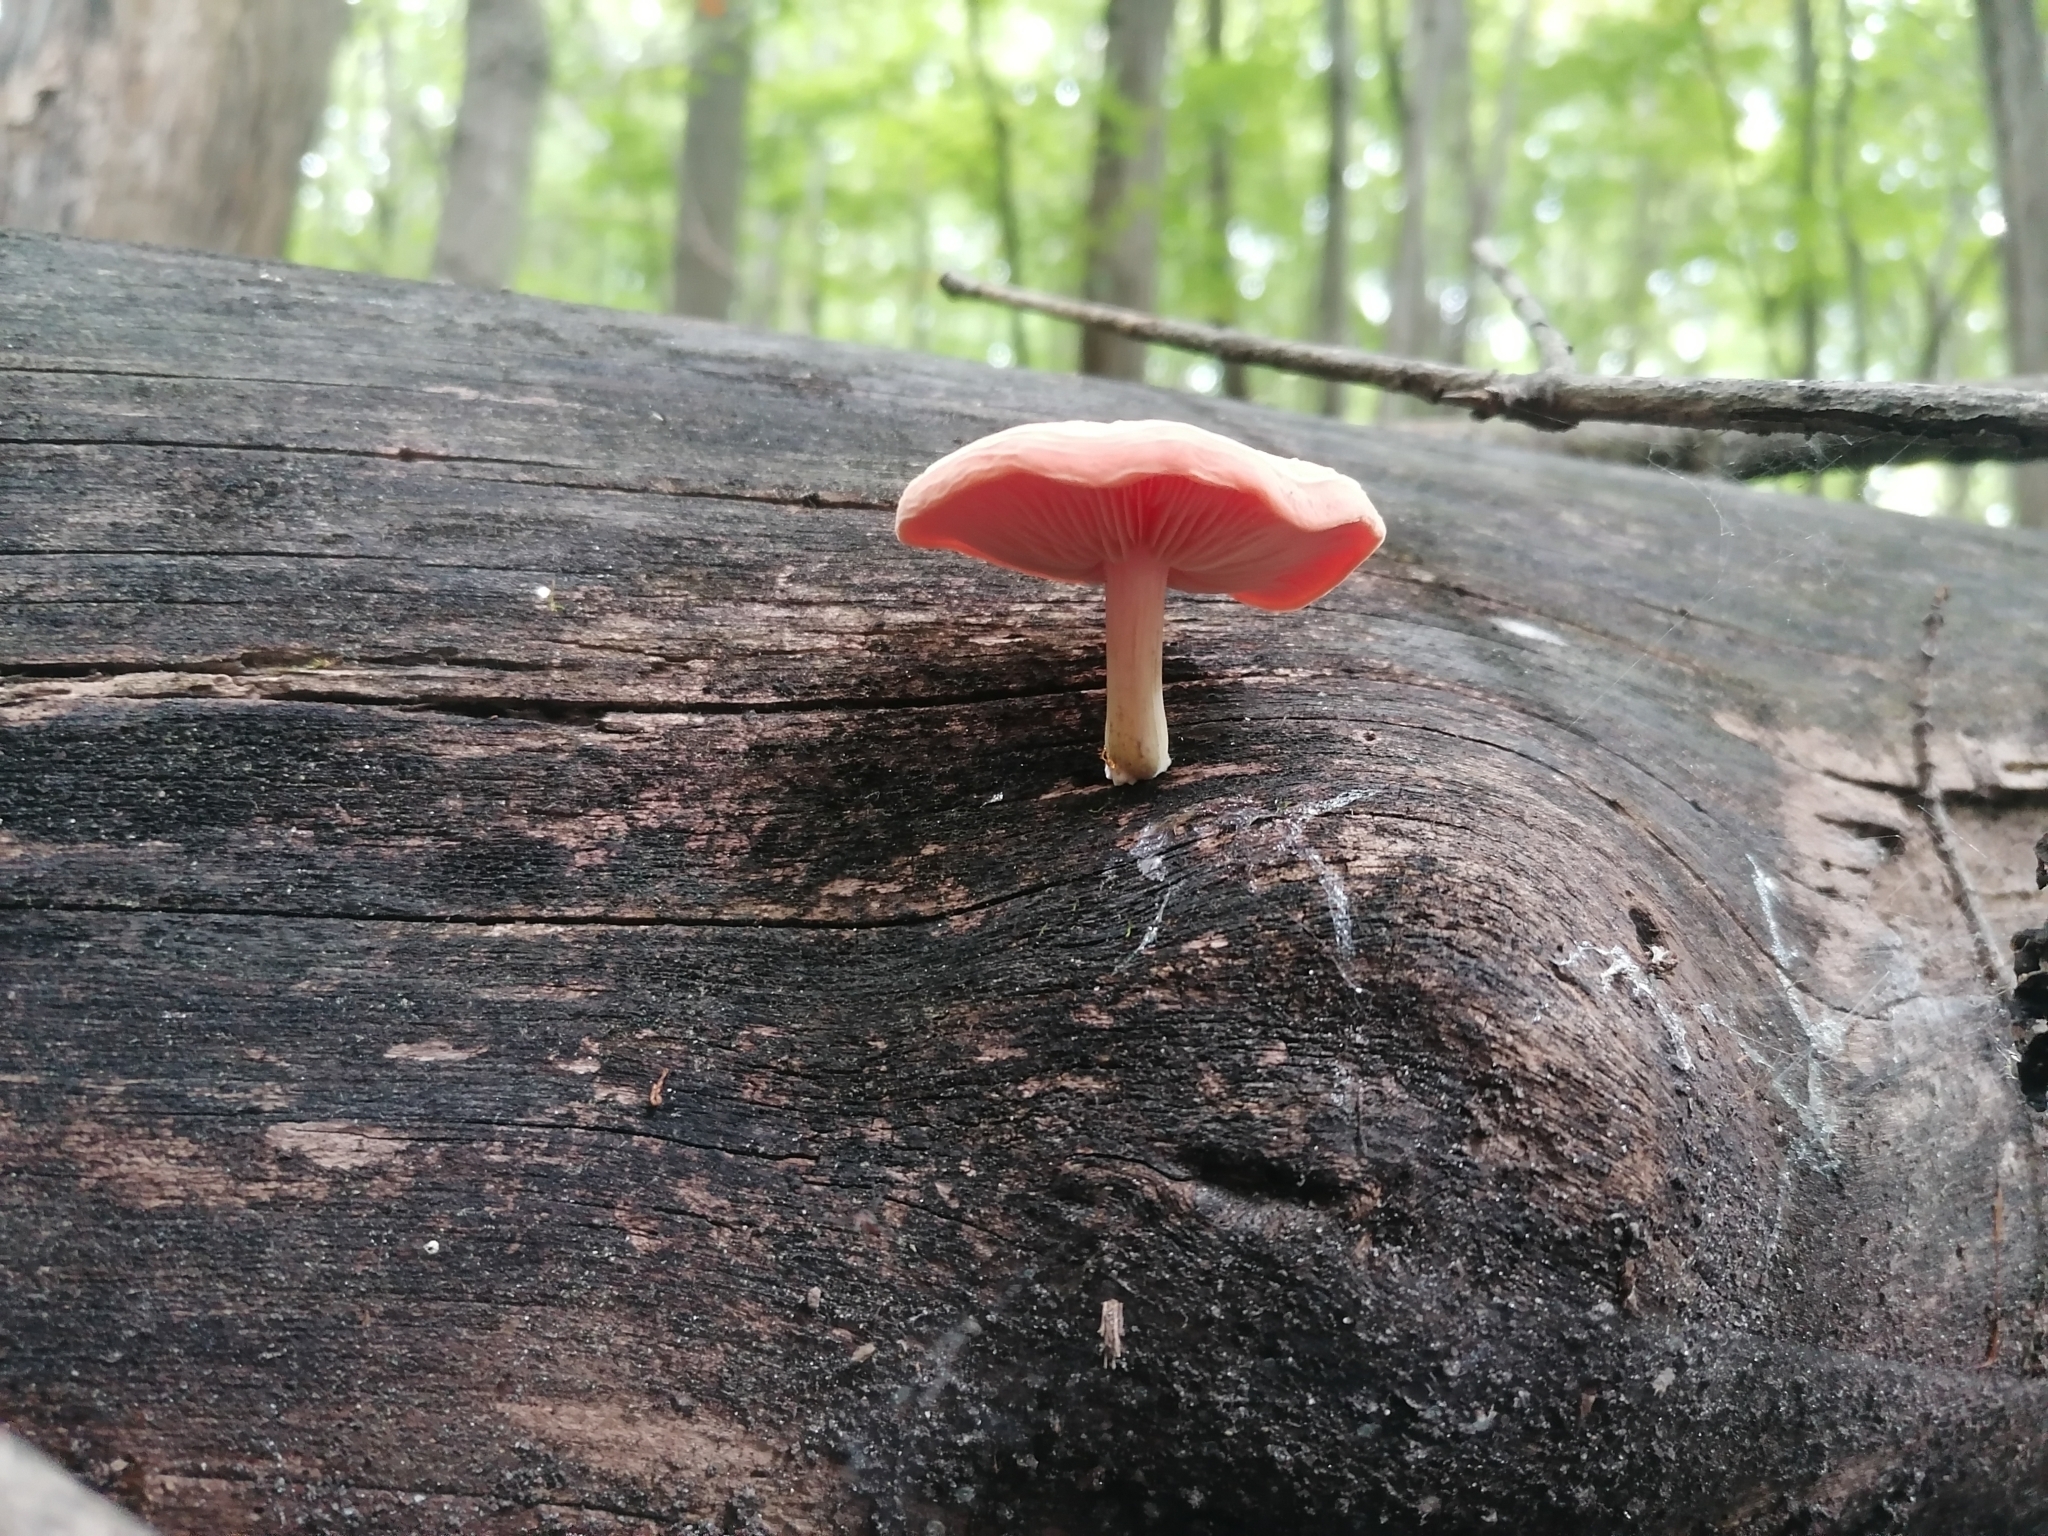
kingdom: Fungi
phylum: Basidiomycota
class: Agaricomycetes
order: Agaricales
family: Physalacriaceae
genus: Rhodotus
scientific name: Rhodotus palmatus
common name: Wrinkled peach
